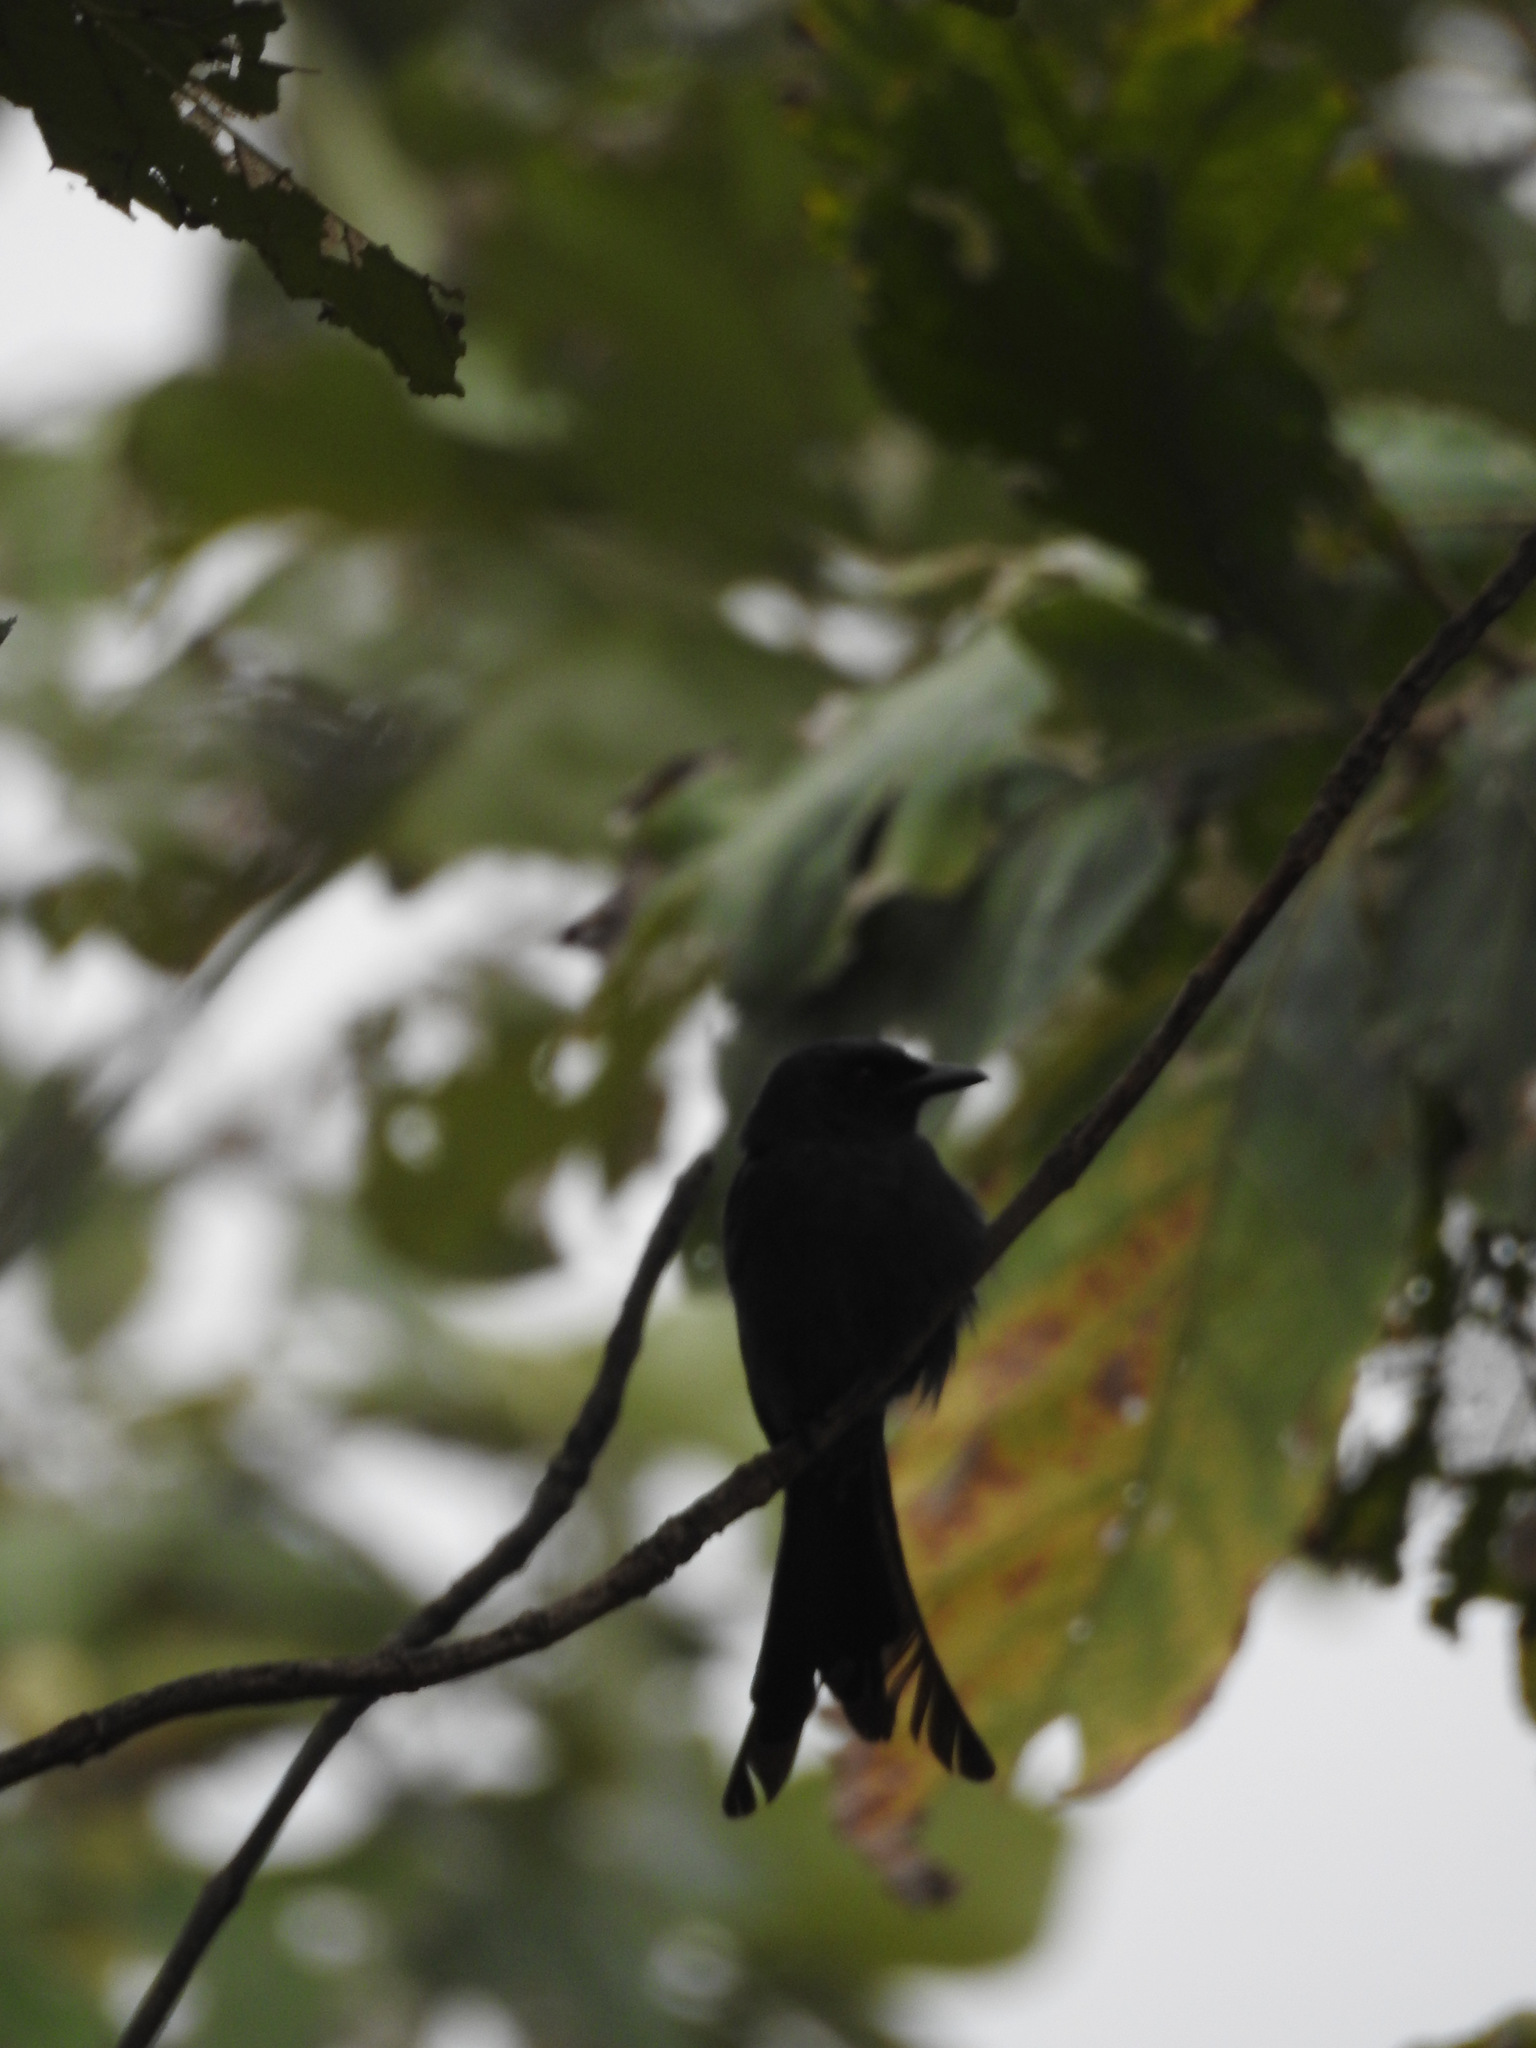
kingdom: Animalia
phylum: Chordata
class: Aves
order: Passeriformes
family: Dicruridae
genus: Dicrurus
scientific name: Dicrurus macrocercus
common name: Black drongo
